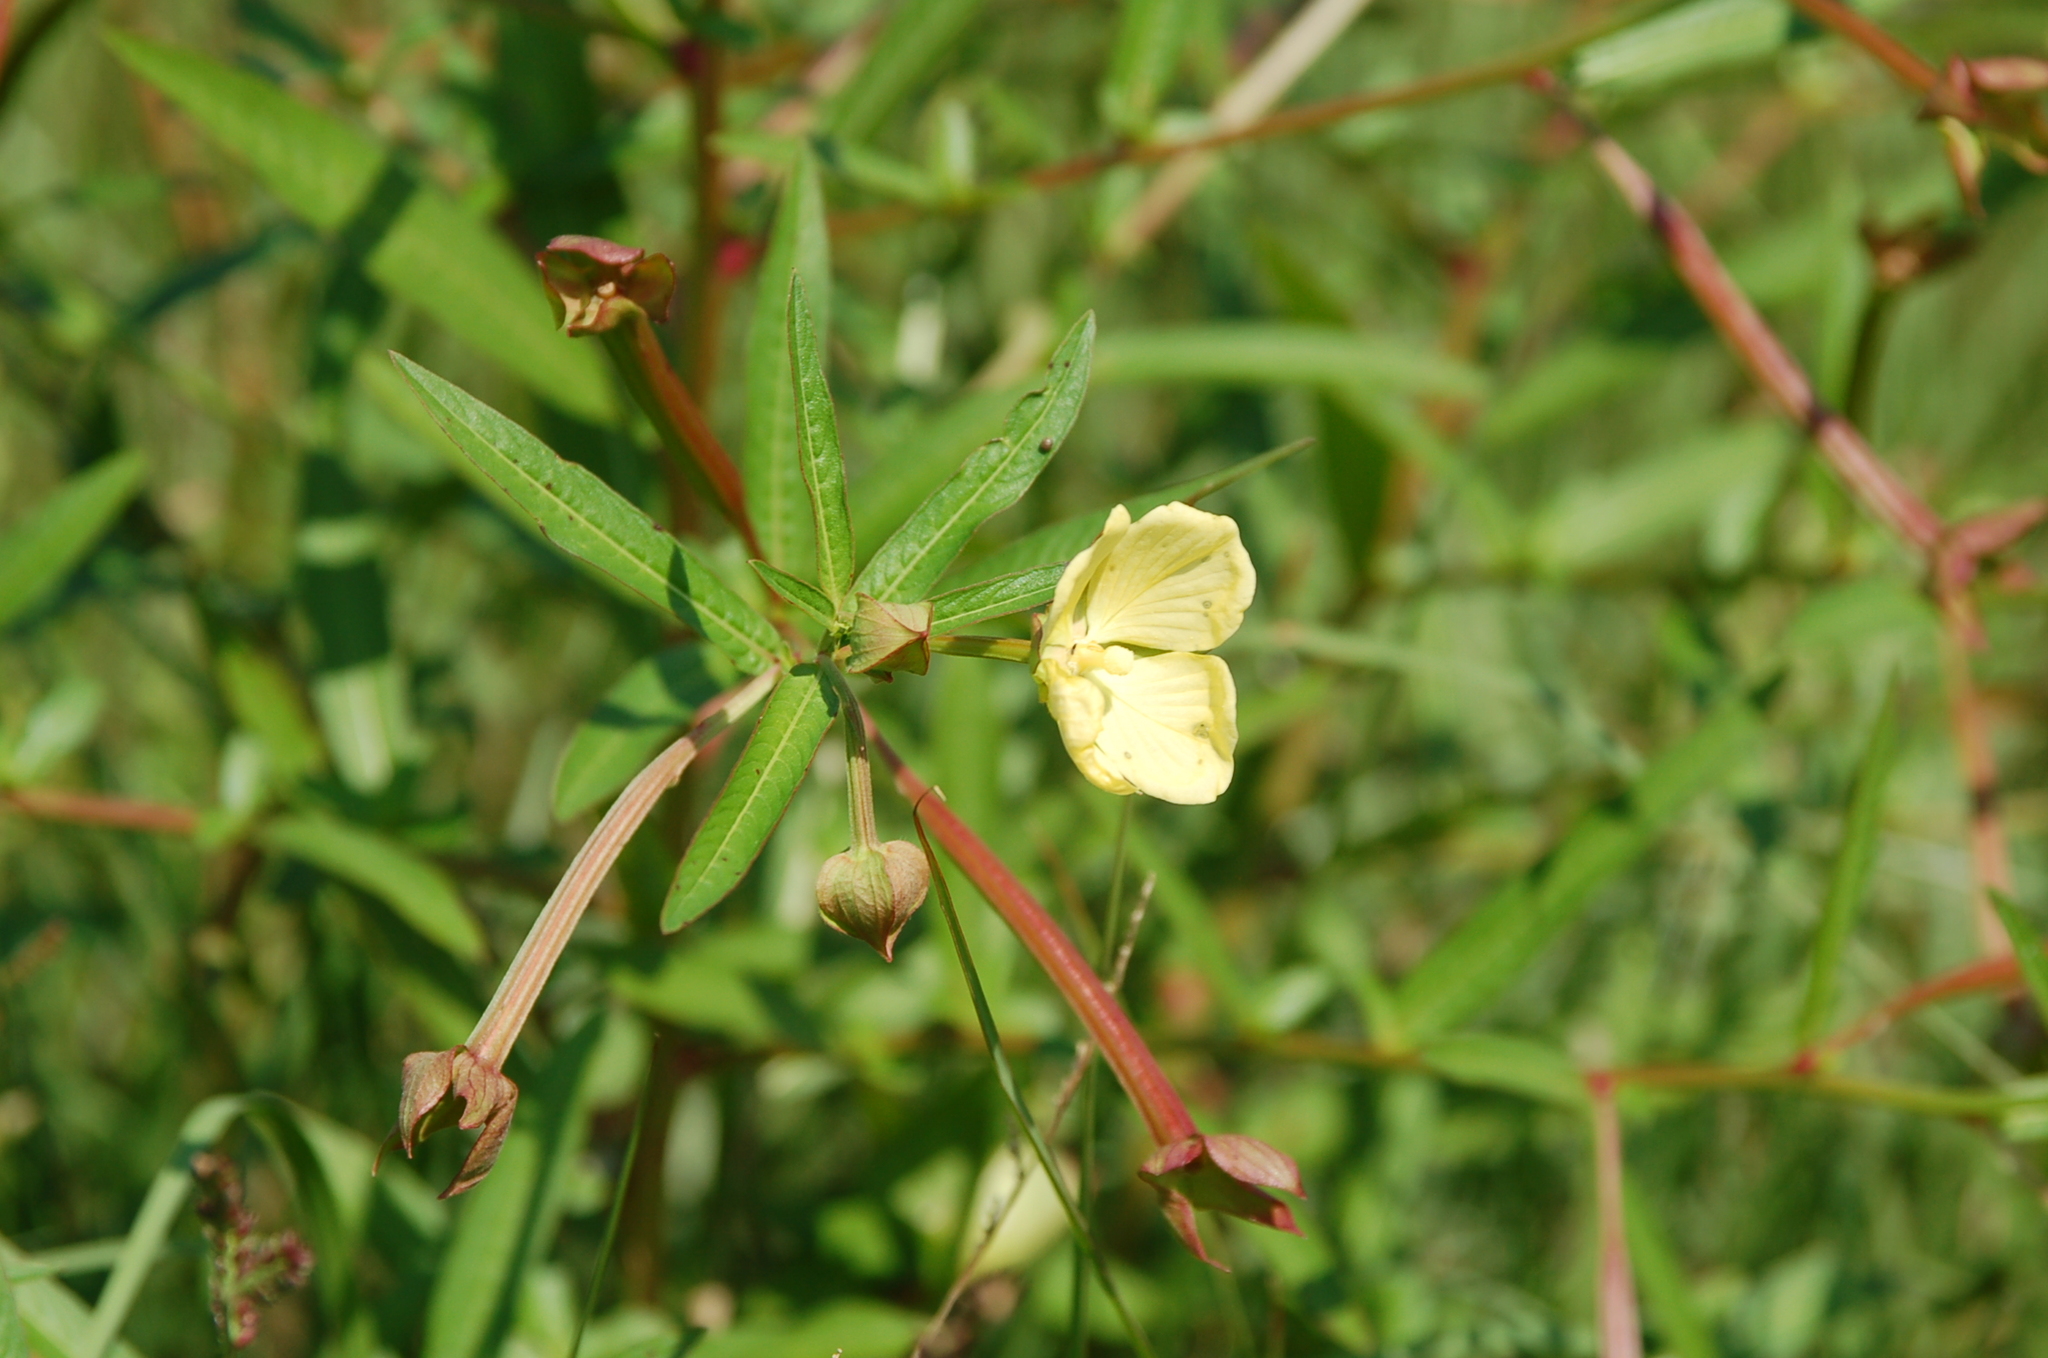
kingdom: Plantae
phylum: Tracheophyta
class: Magnoliopsida
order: Myrtales
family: Onagraceae
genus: Ludwigia
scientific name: Ludwigia octovalvis
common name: Water-primrose
